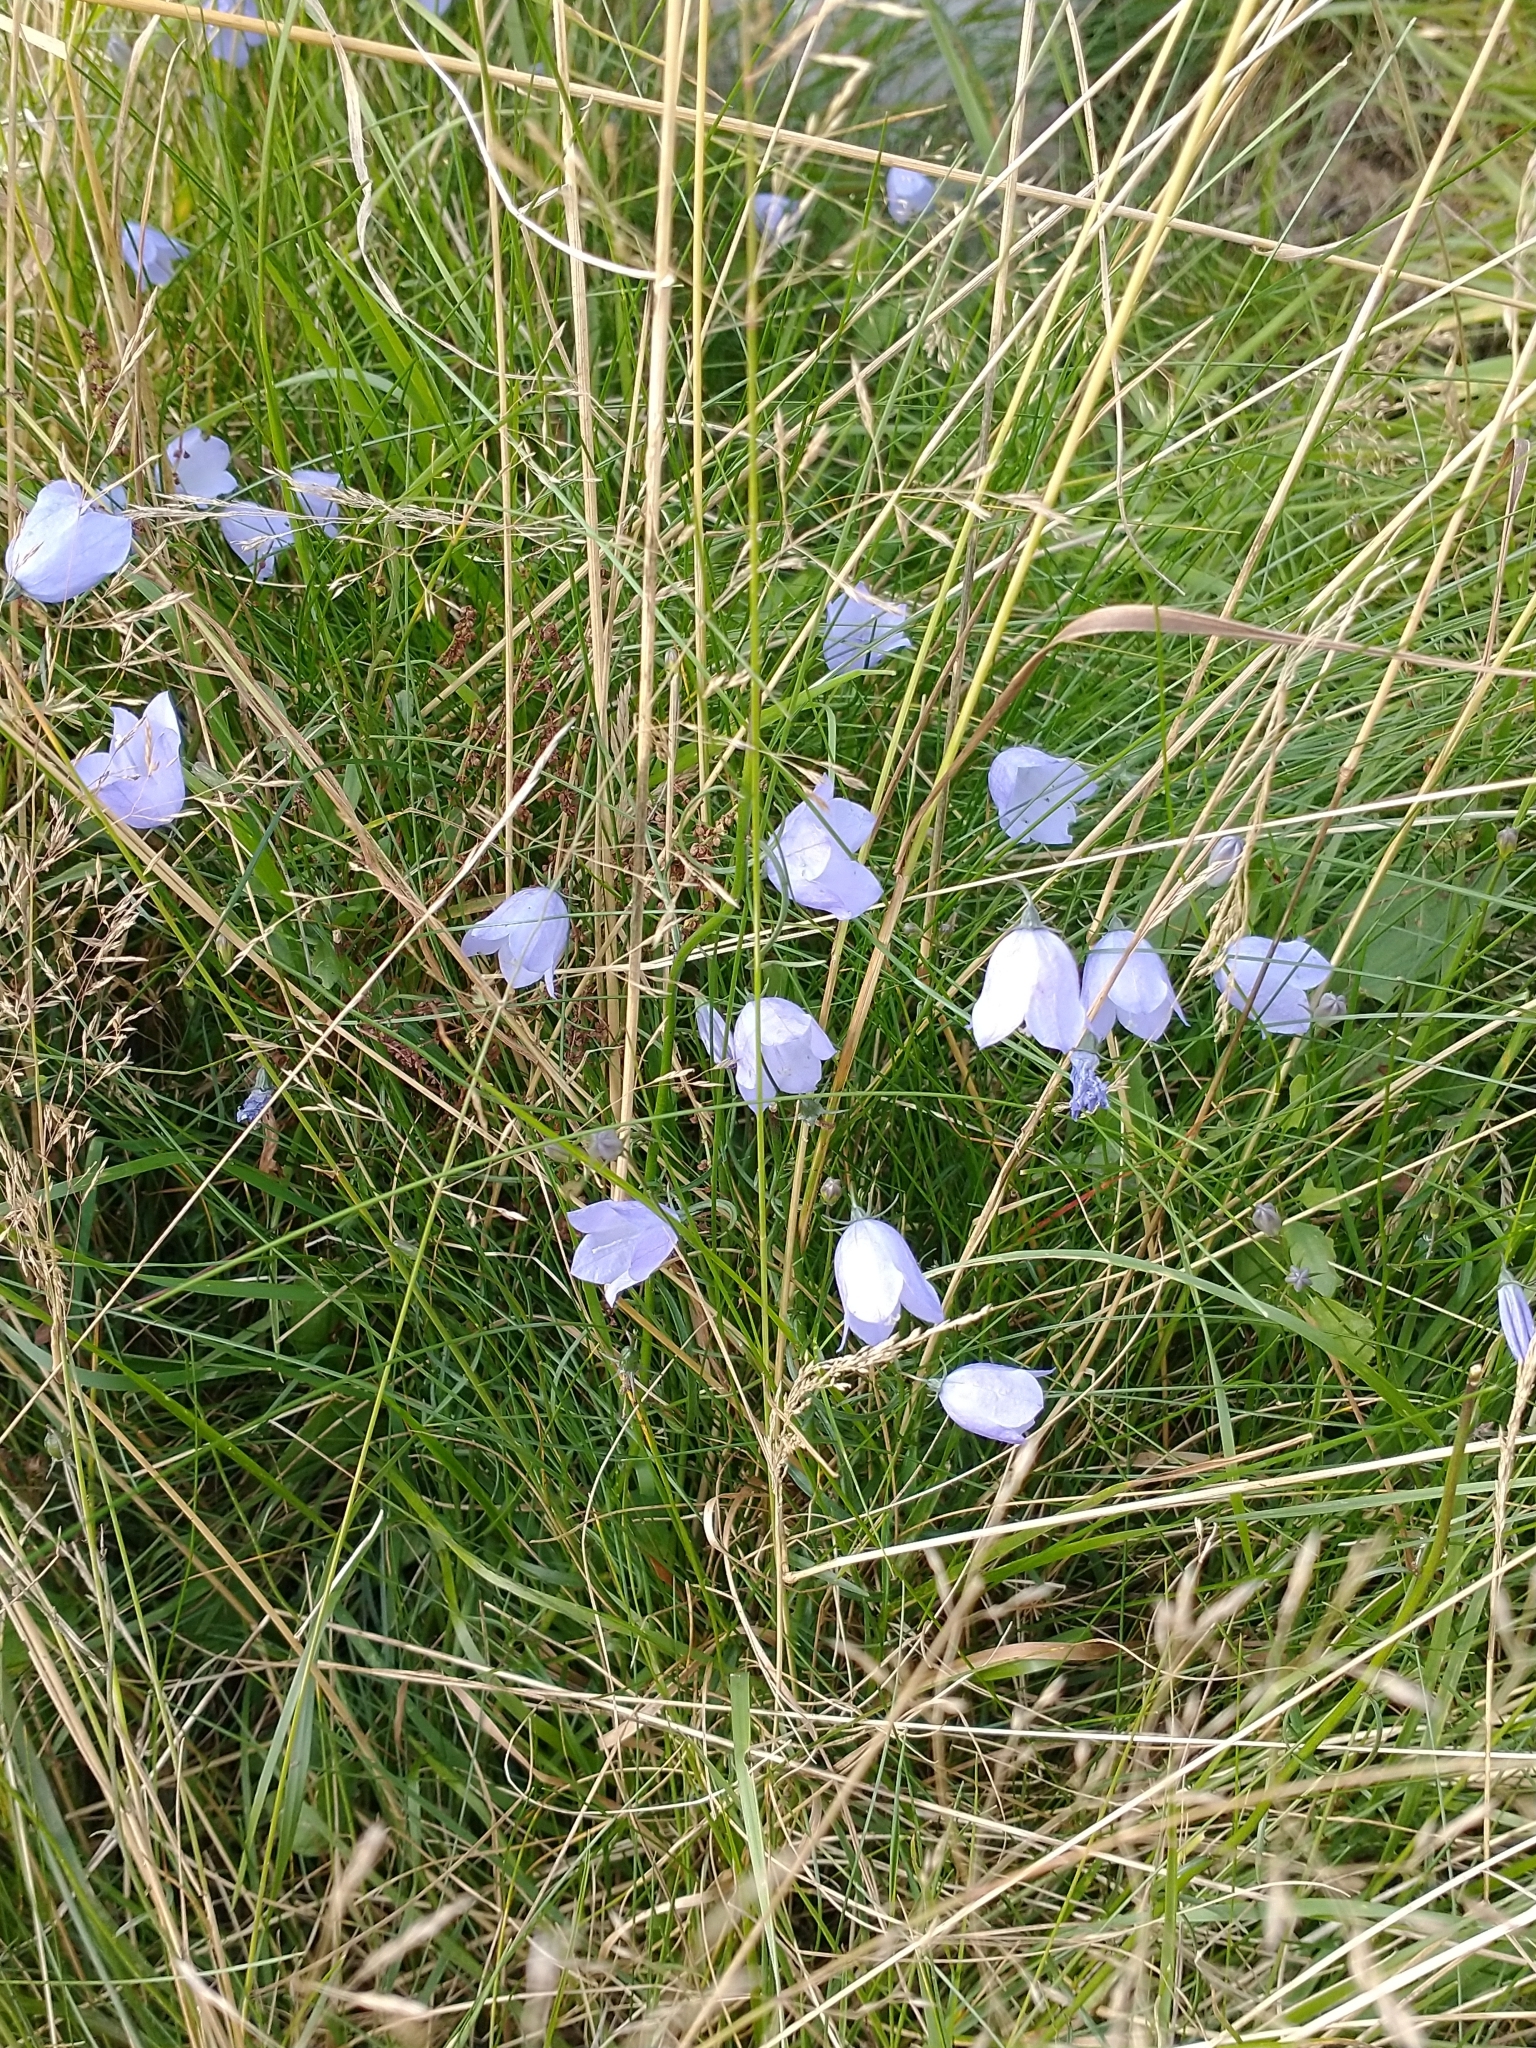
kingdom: Plantae
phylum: Tracheophyta
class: Magnoliopsida
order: Asterales
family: Campanulaceae
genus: Campanula
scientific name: Campanula rotundifolia
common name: Harebell
